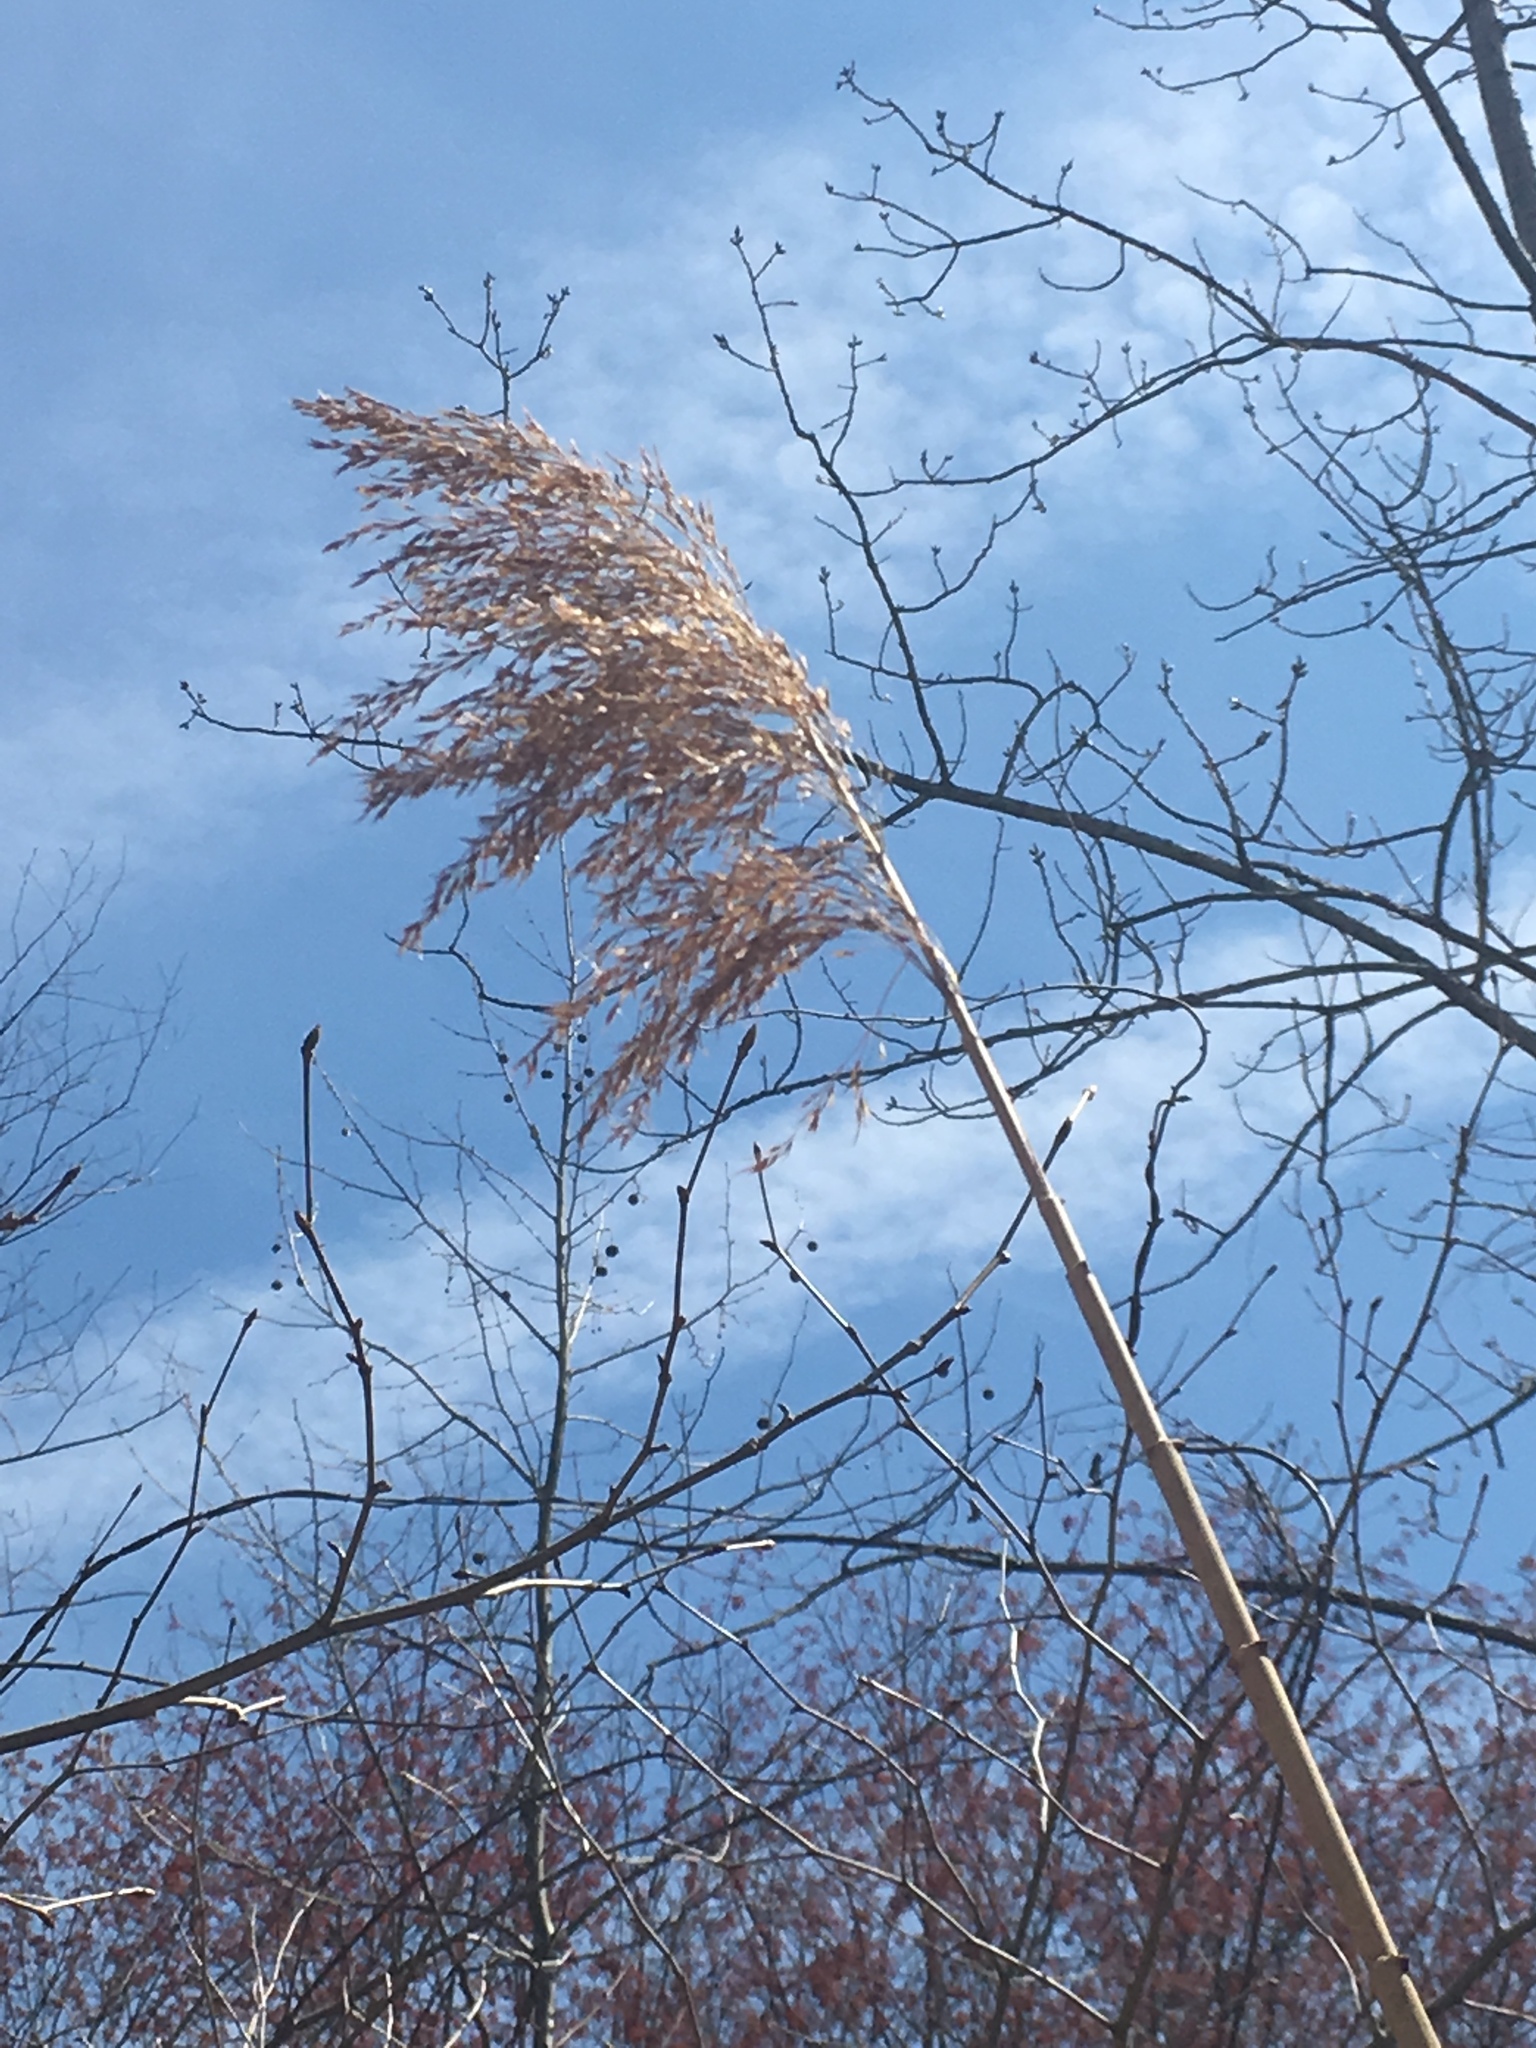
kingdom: Plantae
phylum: Tracheophyta
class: Liliopsida
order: Poales
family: Poaceae
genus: Phragmites
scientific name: Phragmites australis
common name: Common reed
